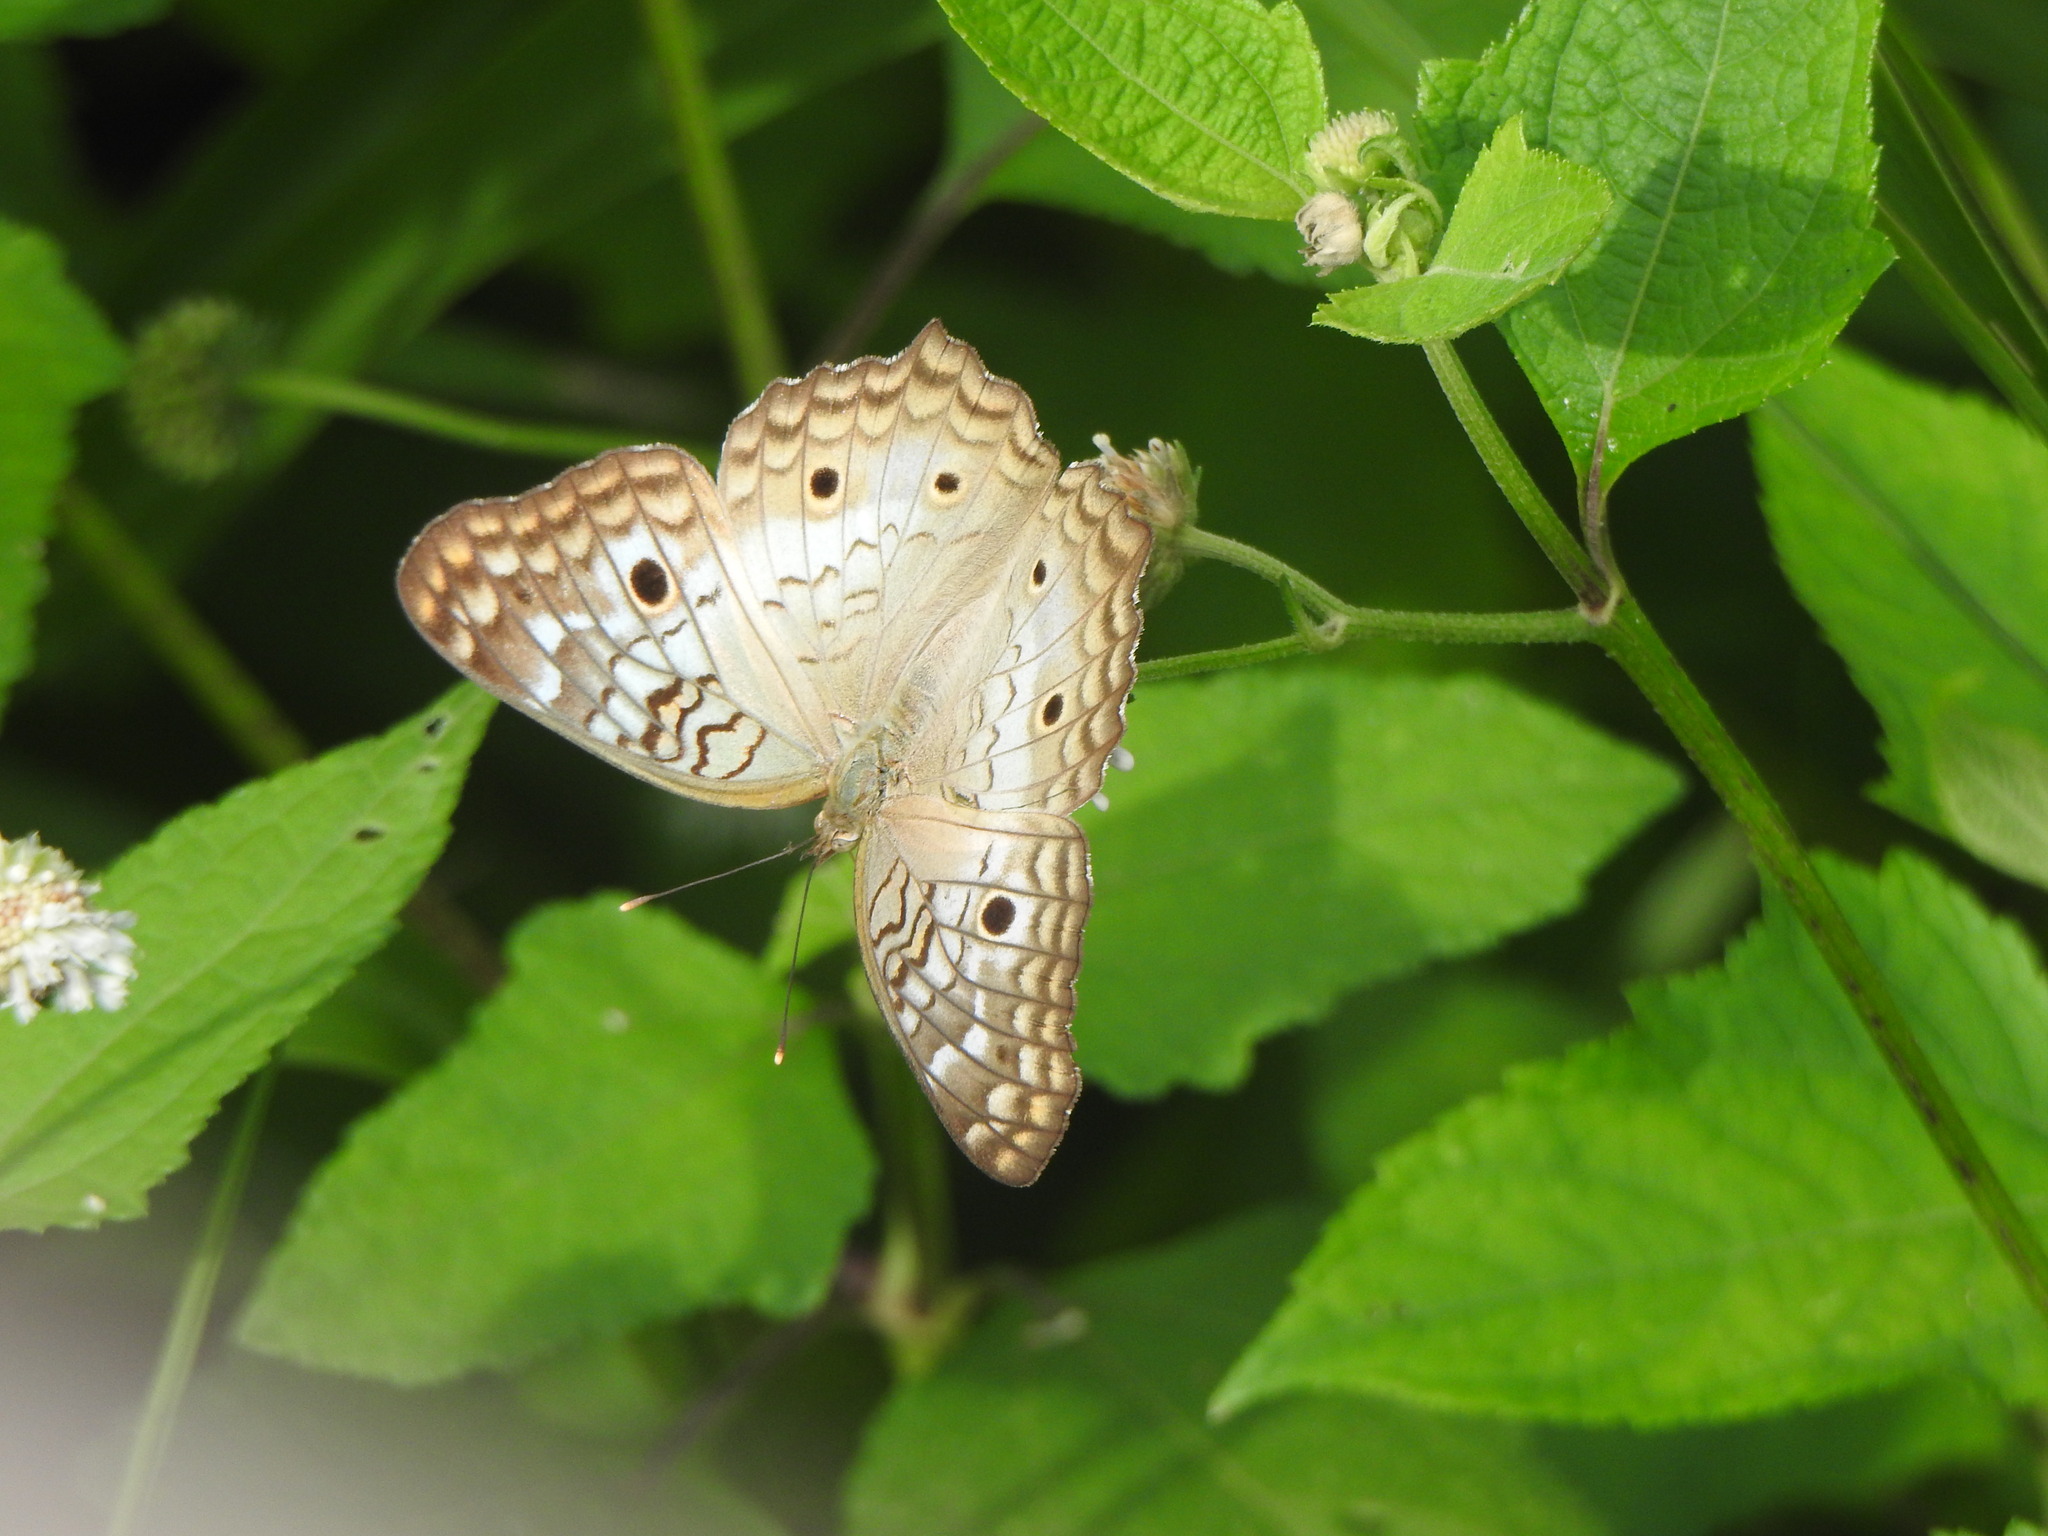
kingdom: Animalia
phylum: Arthropoda
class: Insecta
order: Lepidoptera
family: Nymphalidae
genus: Anartia
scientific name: Anartia jatrophae
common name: White peacock
